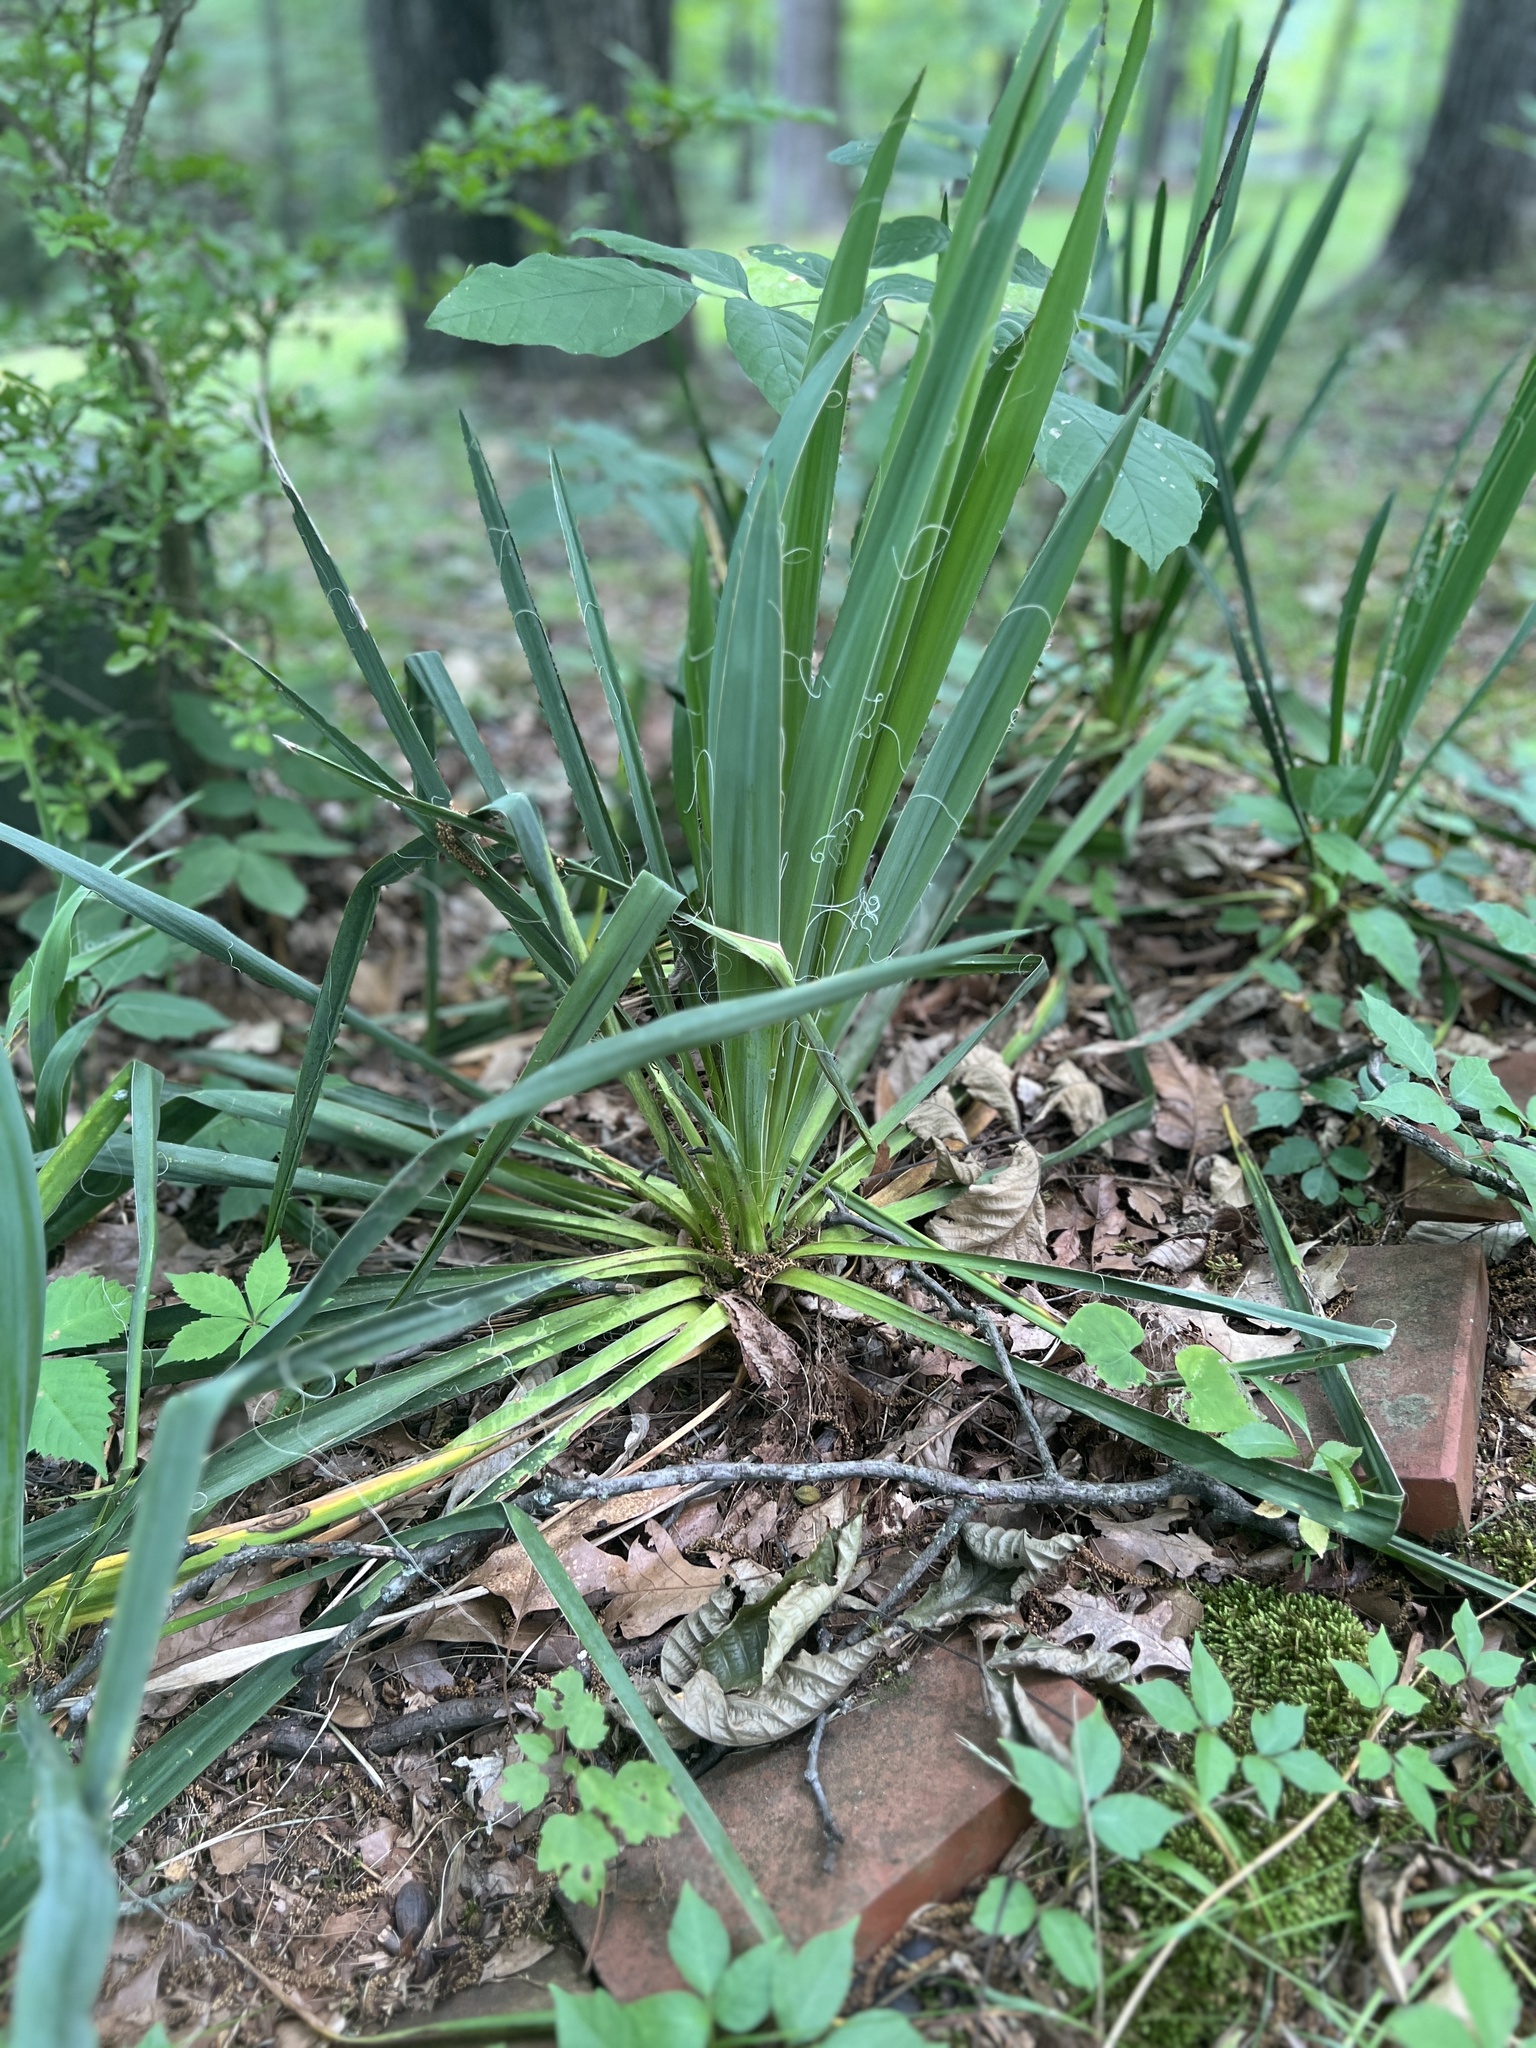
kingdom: Plantae
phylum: Tracheophyta
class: Liliopsida
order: Asparagales
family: Asparagaceae
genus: Yucca
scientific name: Yucca filamentosa
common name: Adam's-needle
